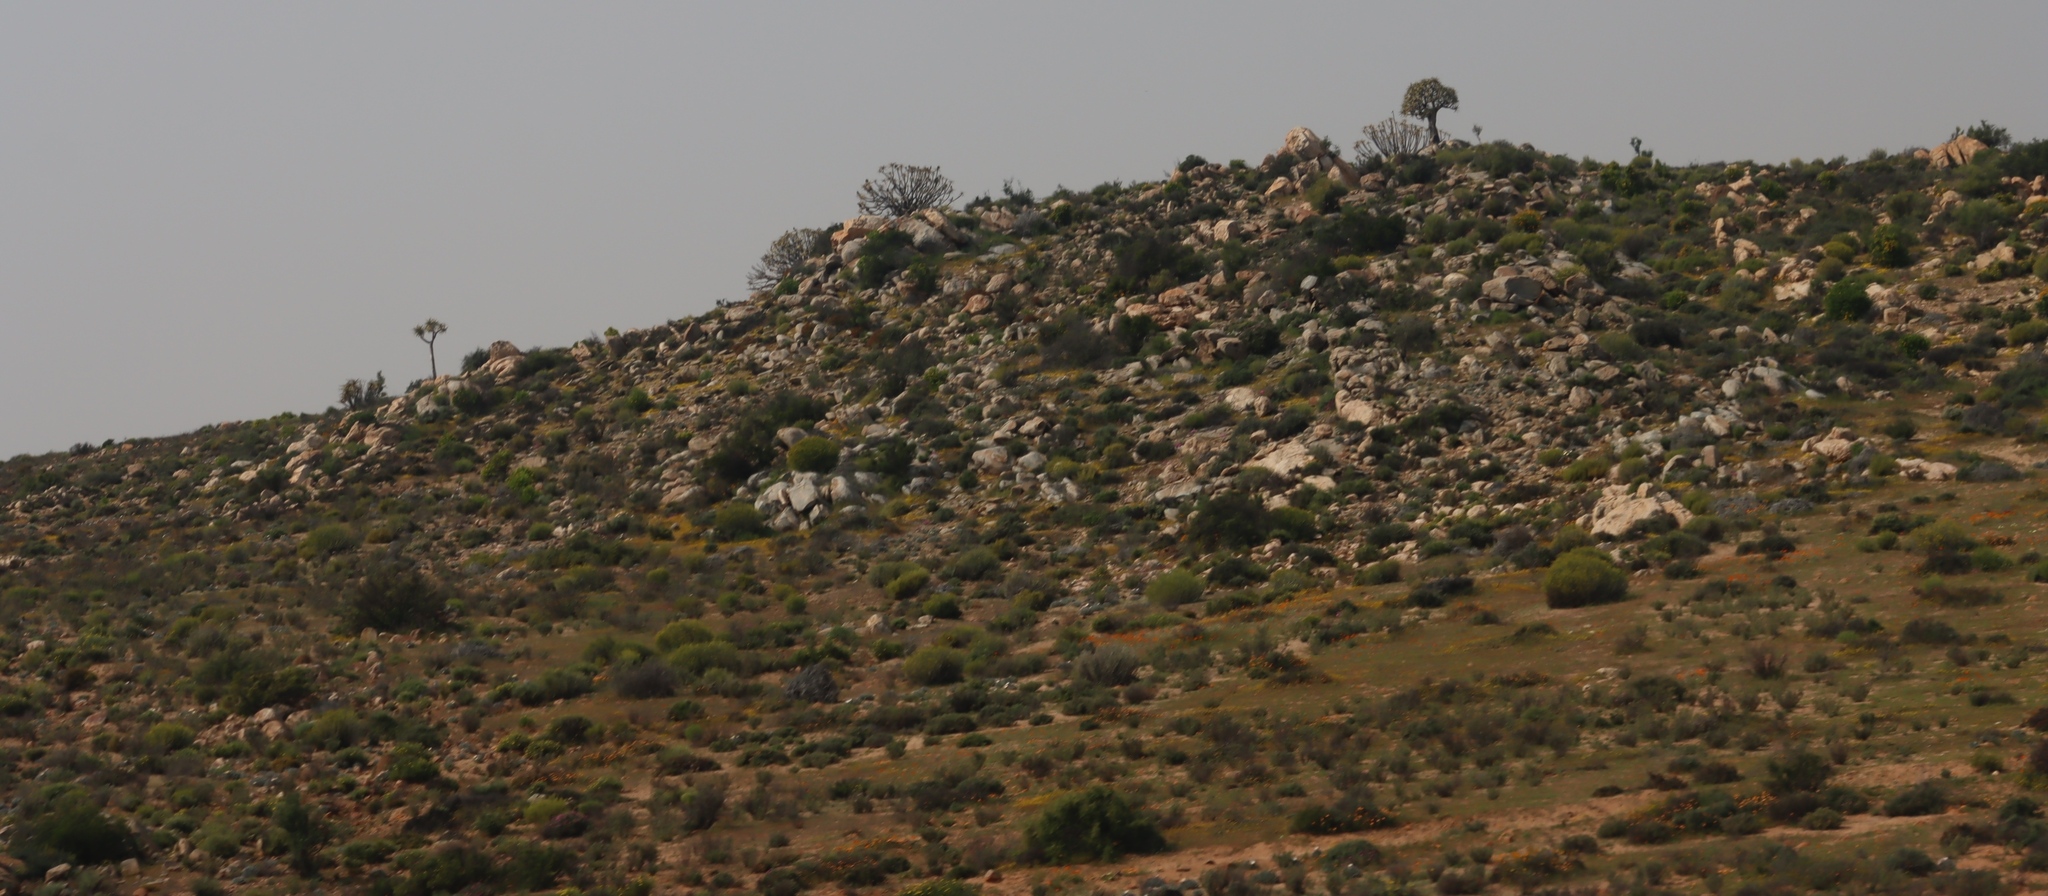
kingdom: Plantae
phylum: Tracheophyta
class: Liliopsida
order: Asparagales
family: Asphodelaceae
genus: Aloidendron
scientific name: Aloidendron dichotomum
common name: Quiver tree
